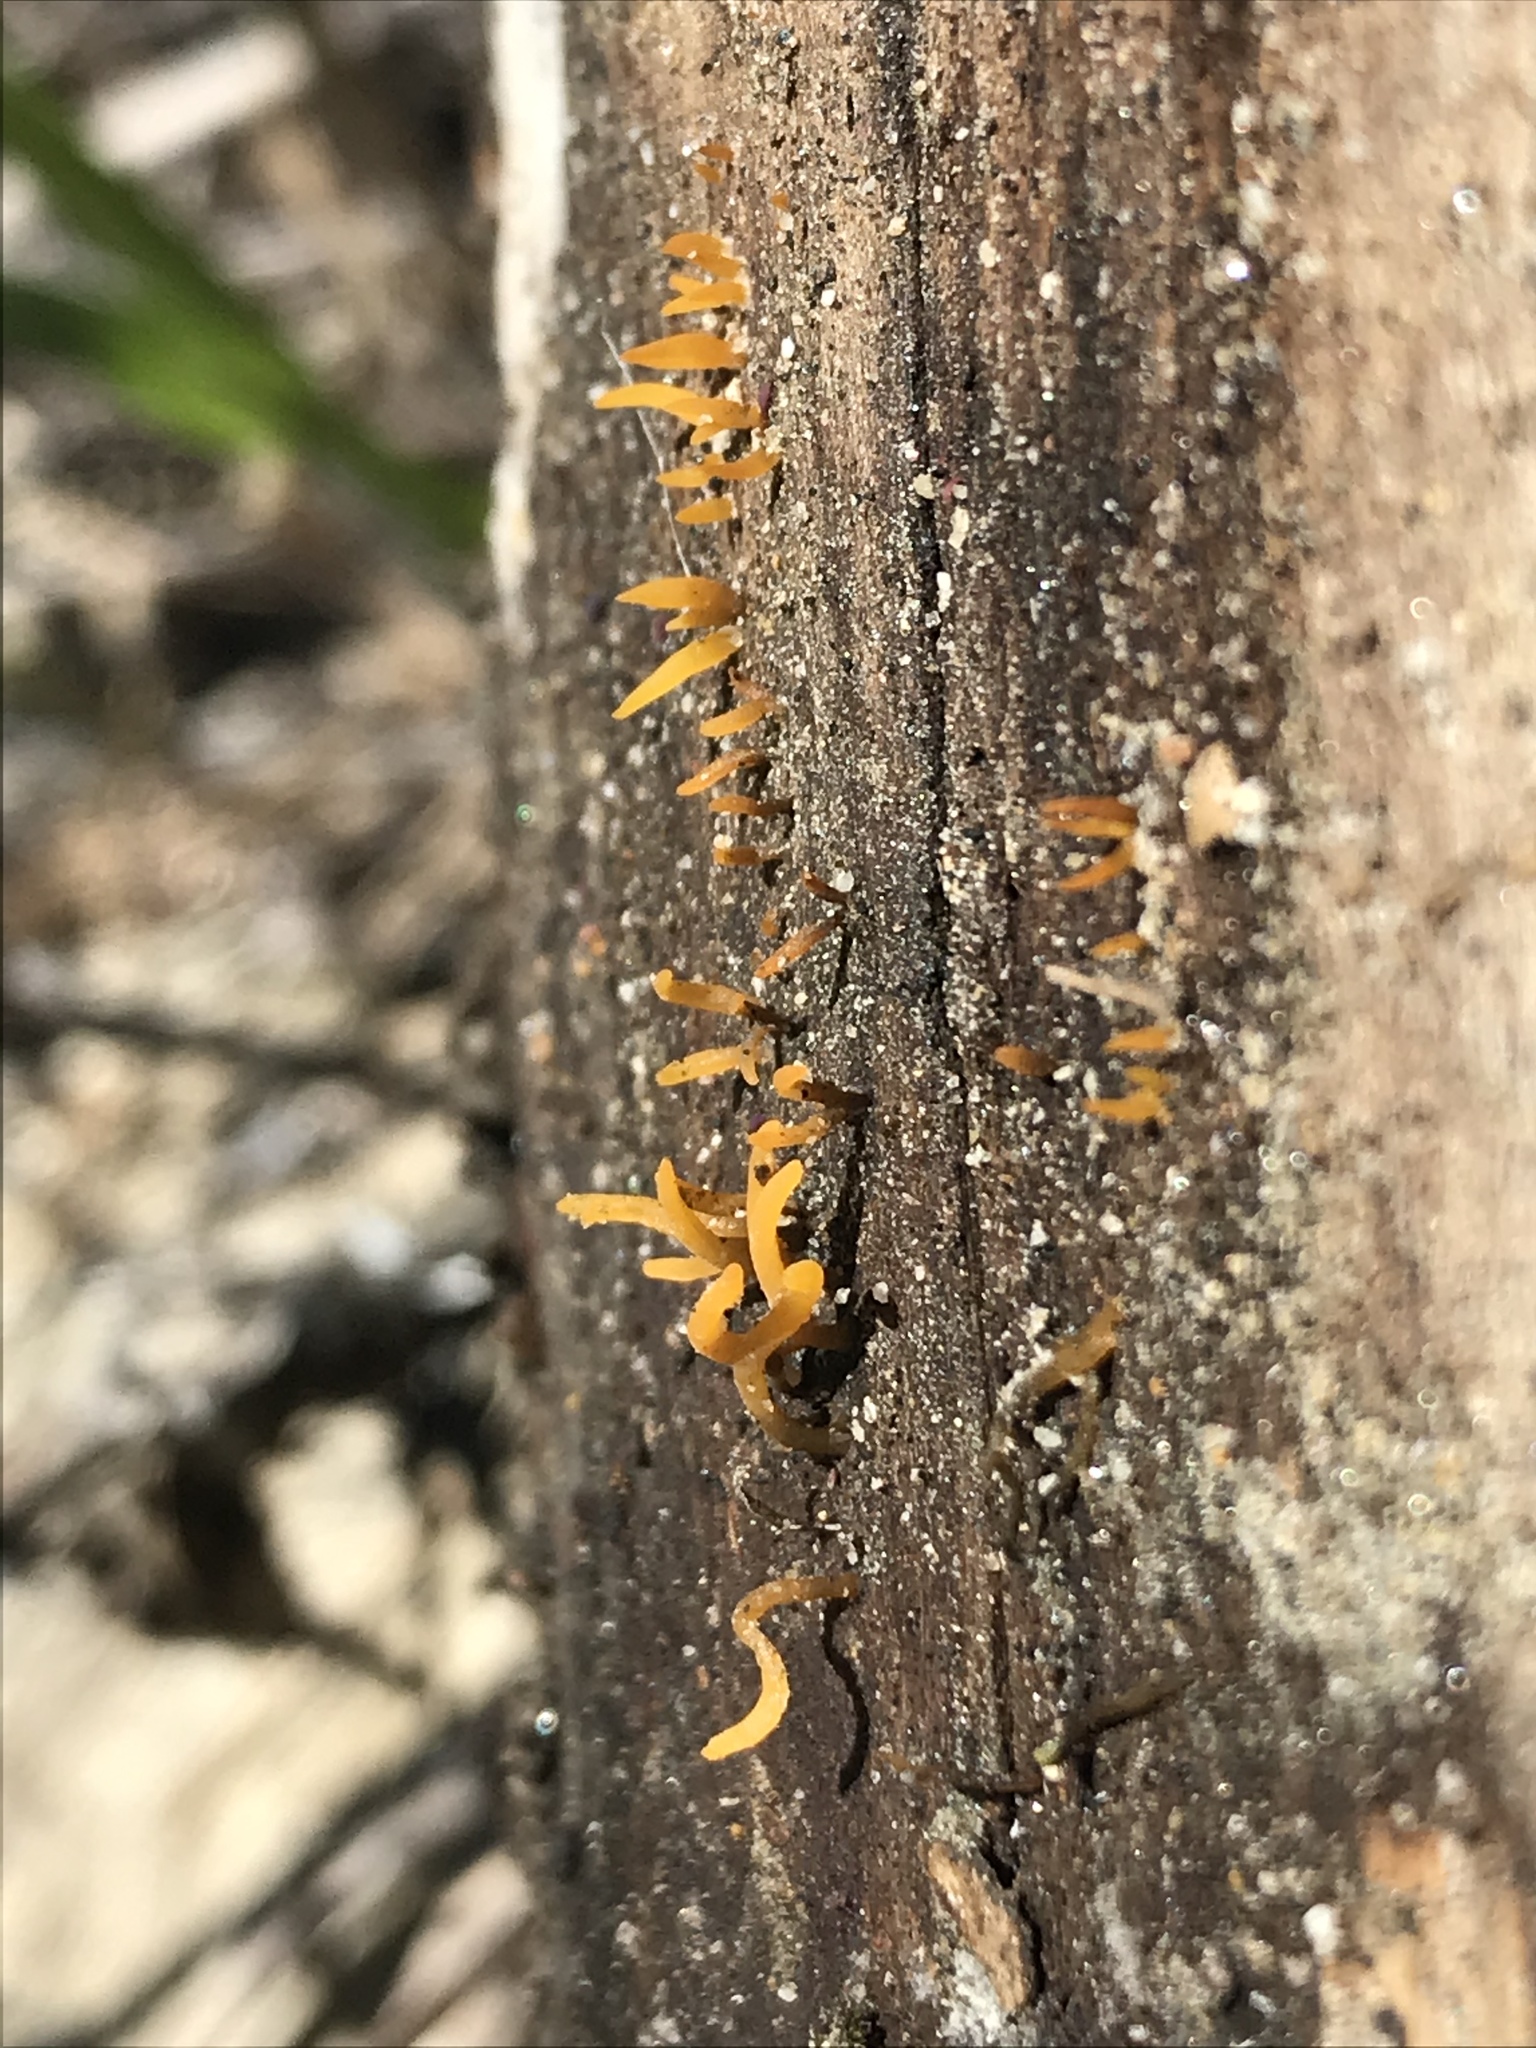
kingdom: Fungi
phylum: Basidiomycota
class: Dacrymycetes
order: Dacrymycetales
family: Dacrymycetaceae
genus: Calocera
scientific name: Calocera
